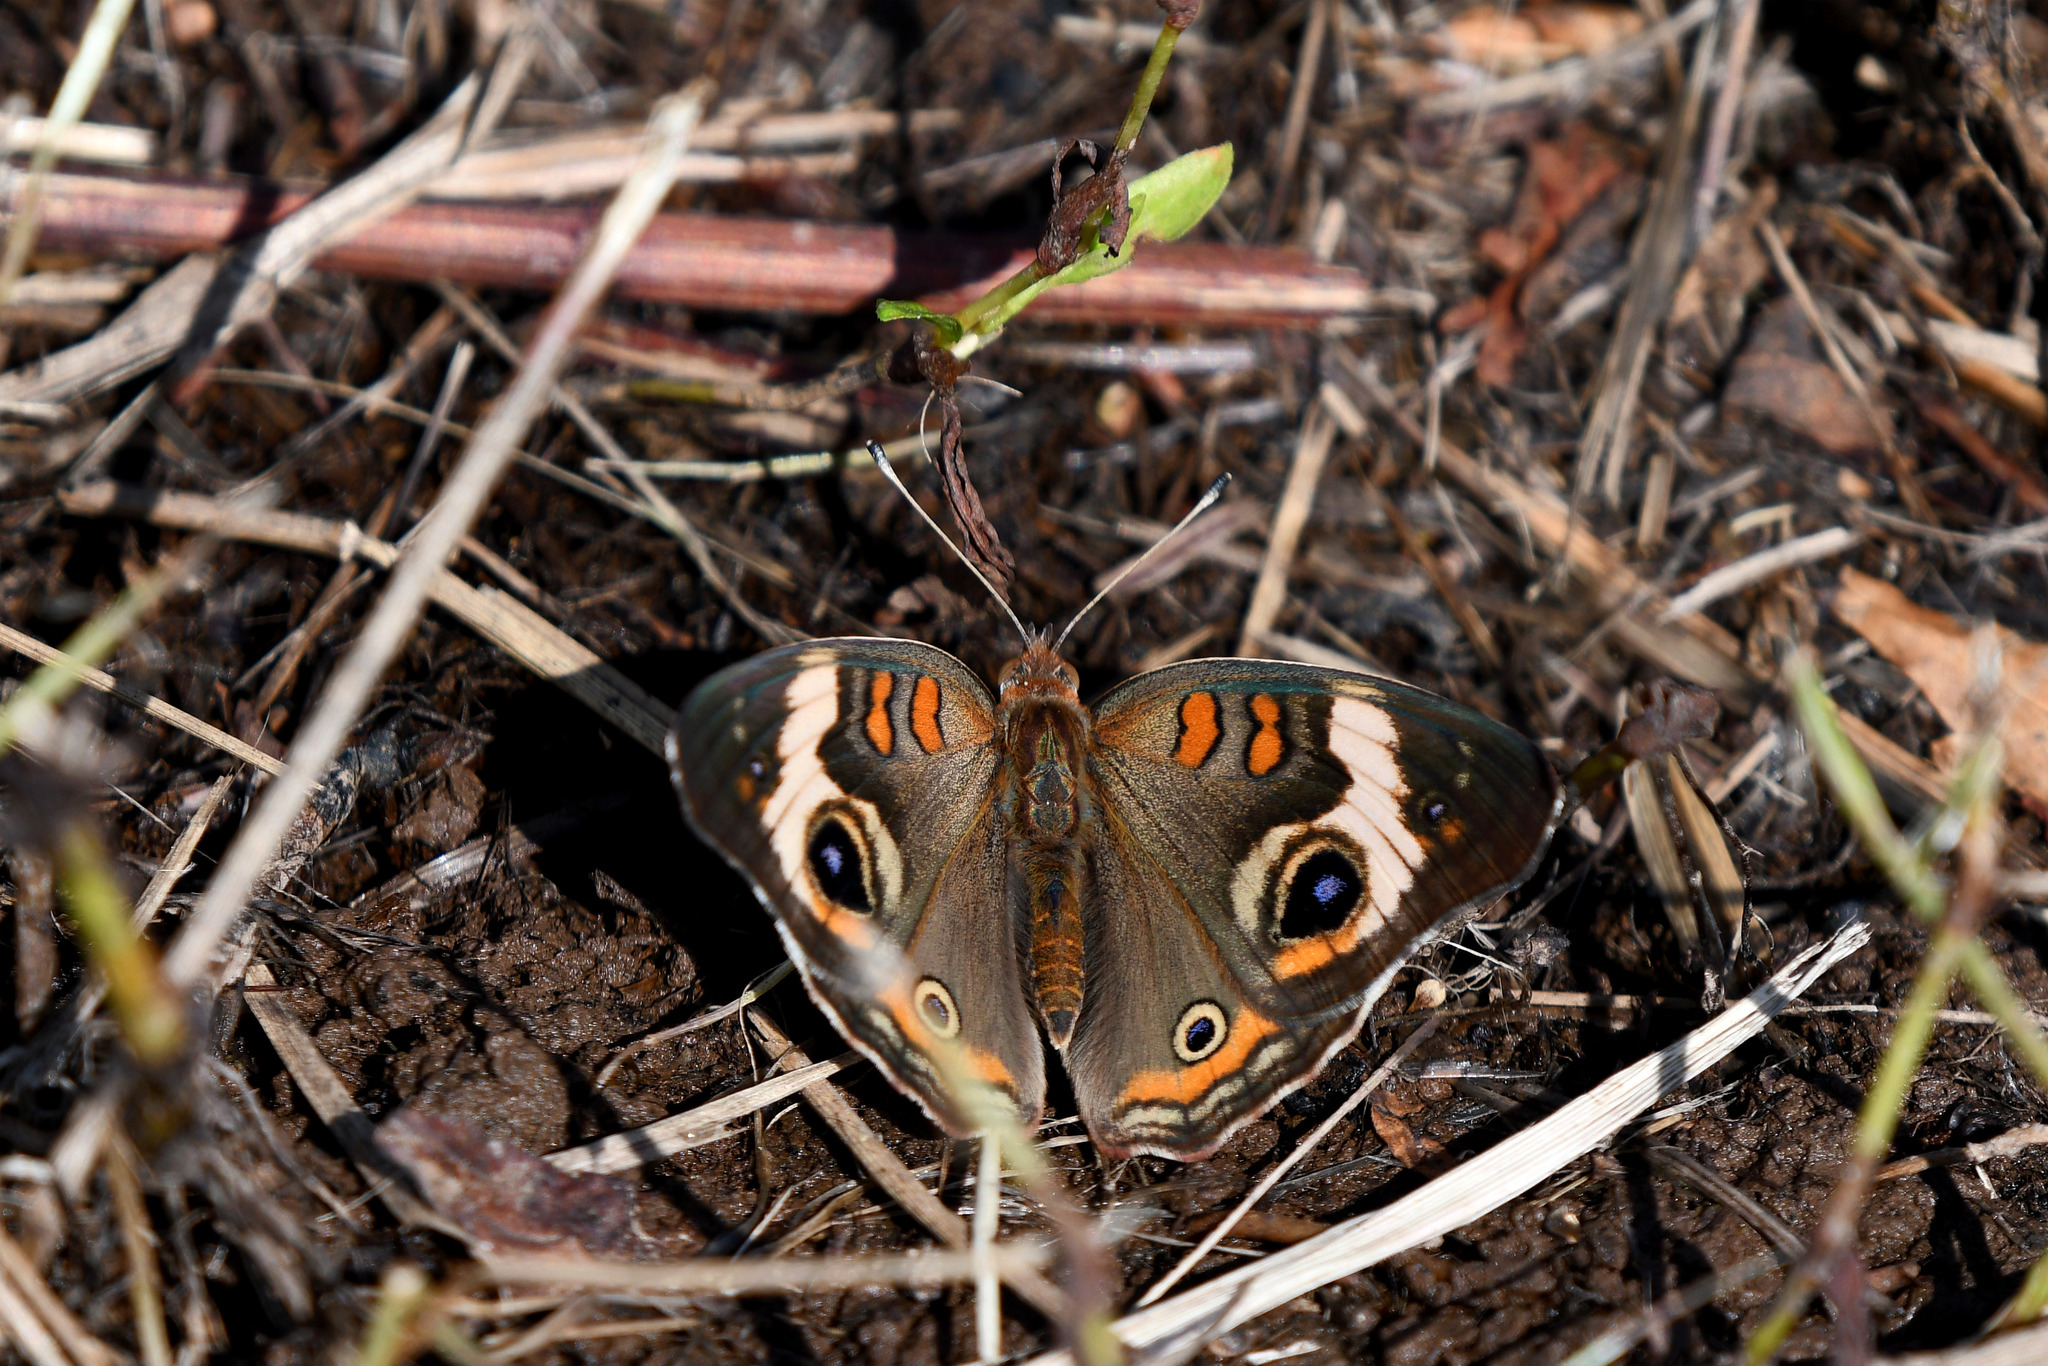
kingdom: Animalia
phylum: Arthropoda
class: Insecta
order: Lepidoptera
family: Nymphalidae
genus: Junonia
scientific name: Junonia coenia
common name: Common buckeye
